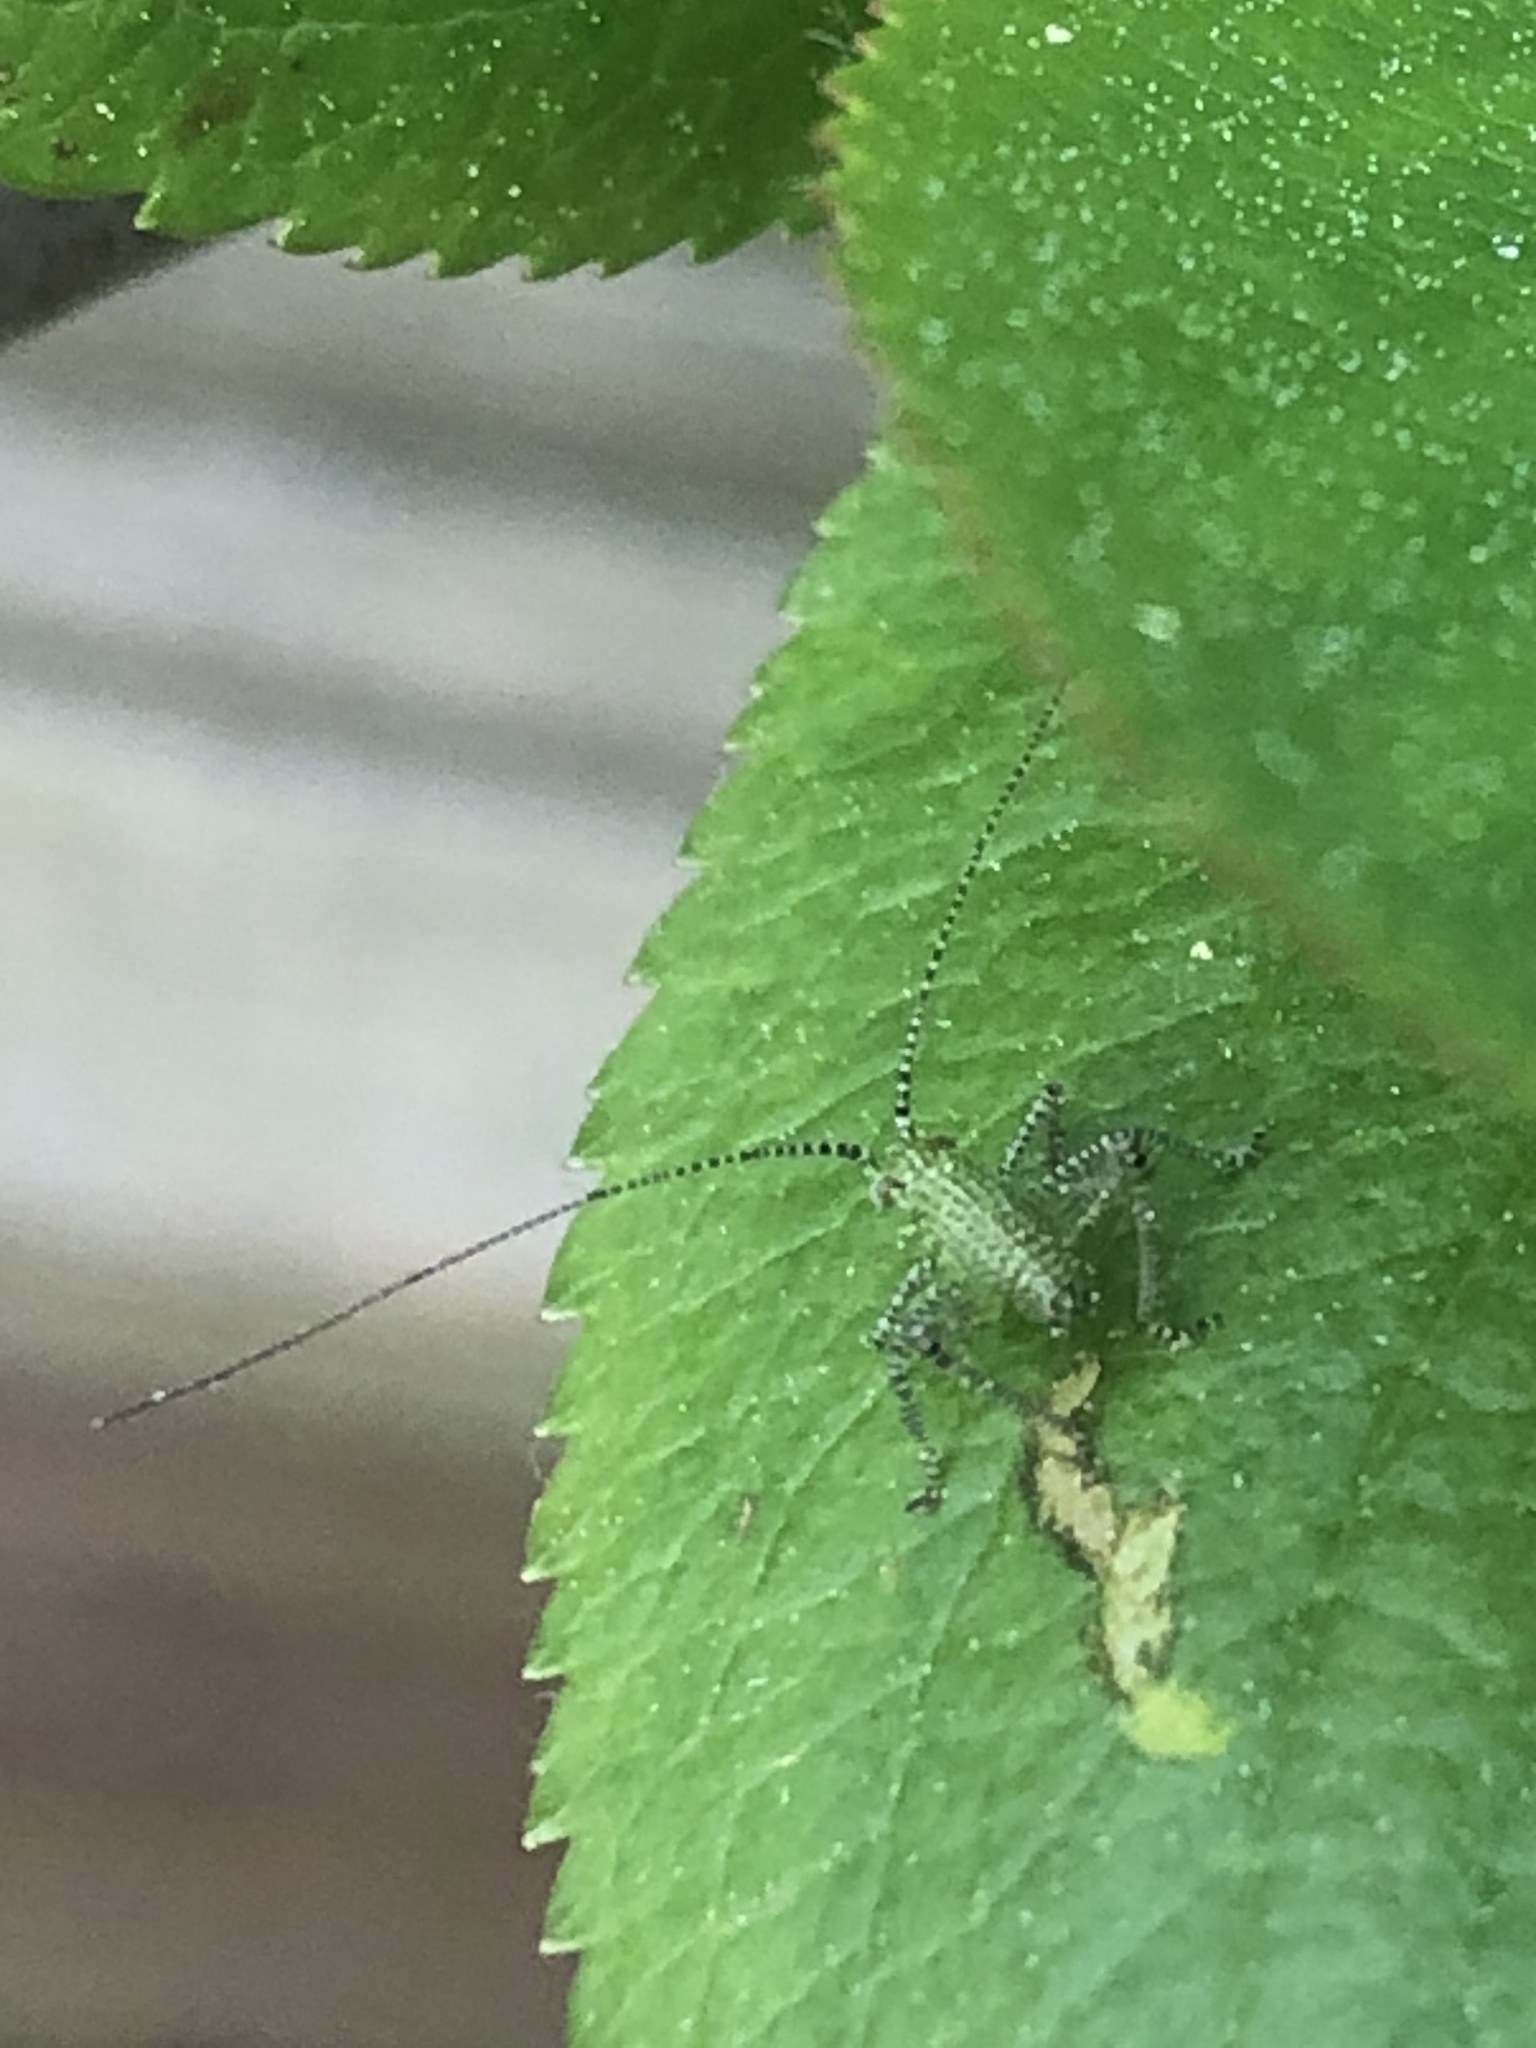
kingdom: Animalia
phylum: Arthropoda
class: Insecta
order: Orthoptera
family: Tettigoniidae
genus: Leptophyes
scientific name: Leptophyes punctatissima
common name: Speckled bush-cricket
